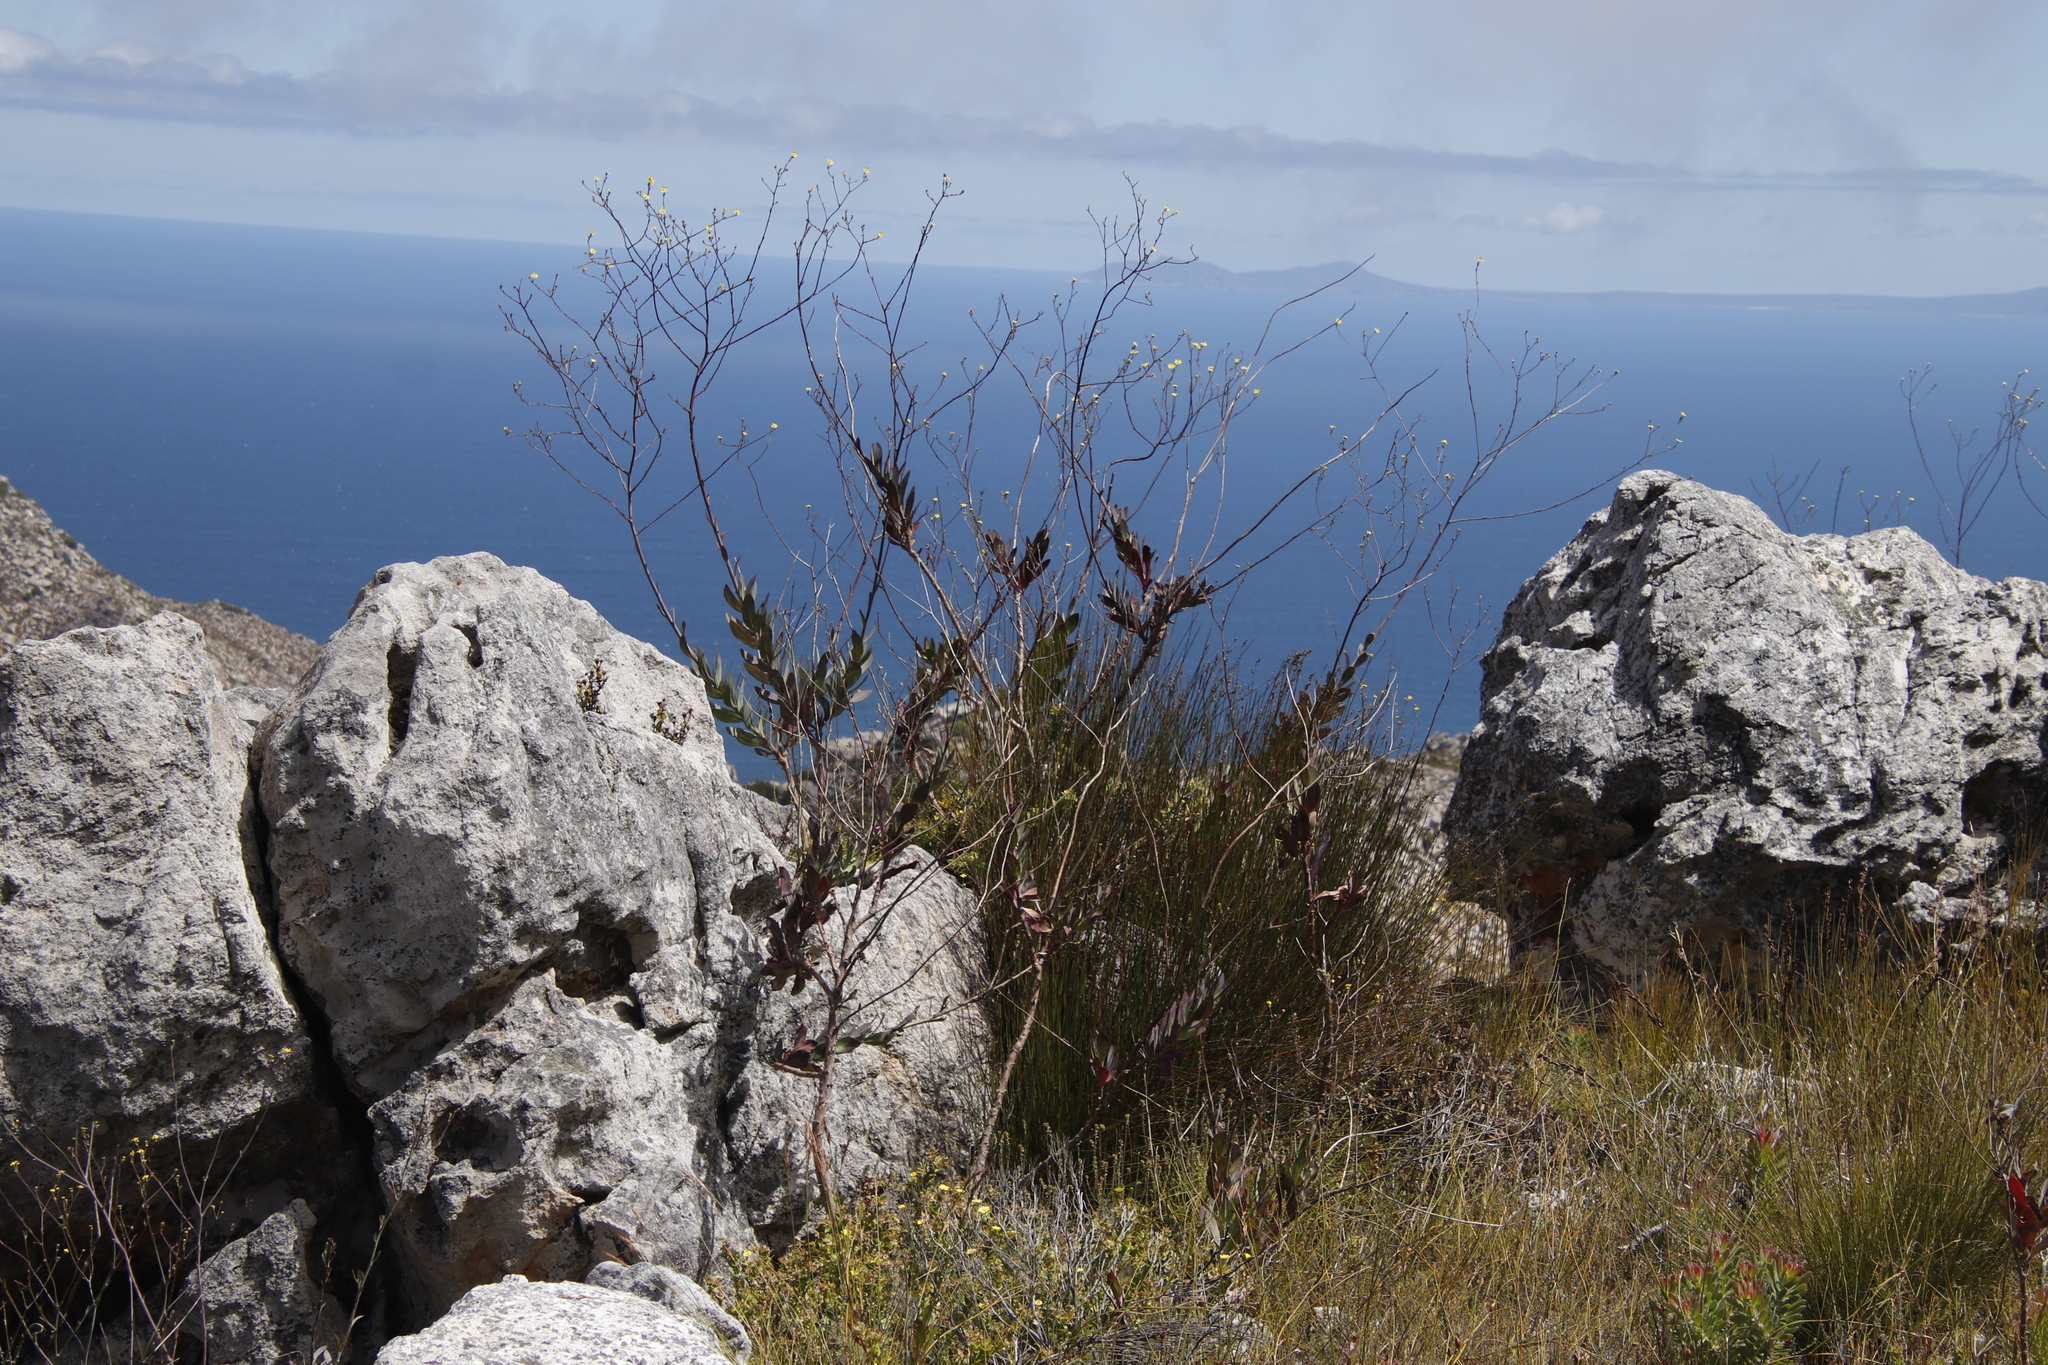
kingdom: Plantae
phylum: Tracheophyta
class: Magnoliopsida
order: Asterales
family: Asteraceae
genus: Othonna
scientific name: Othonna quinquedentata
